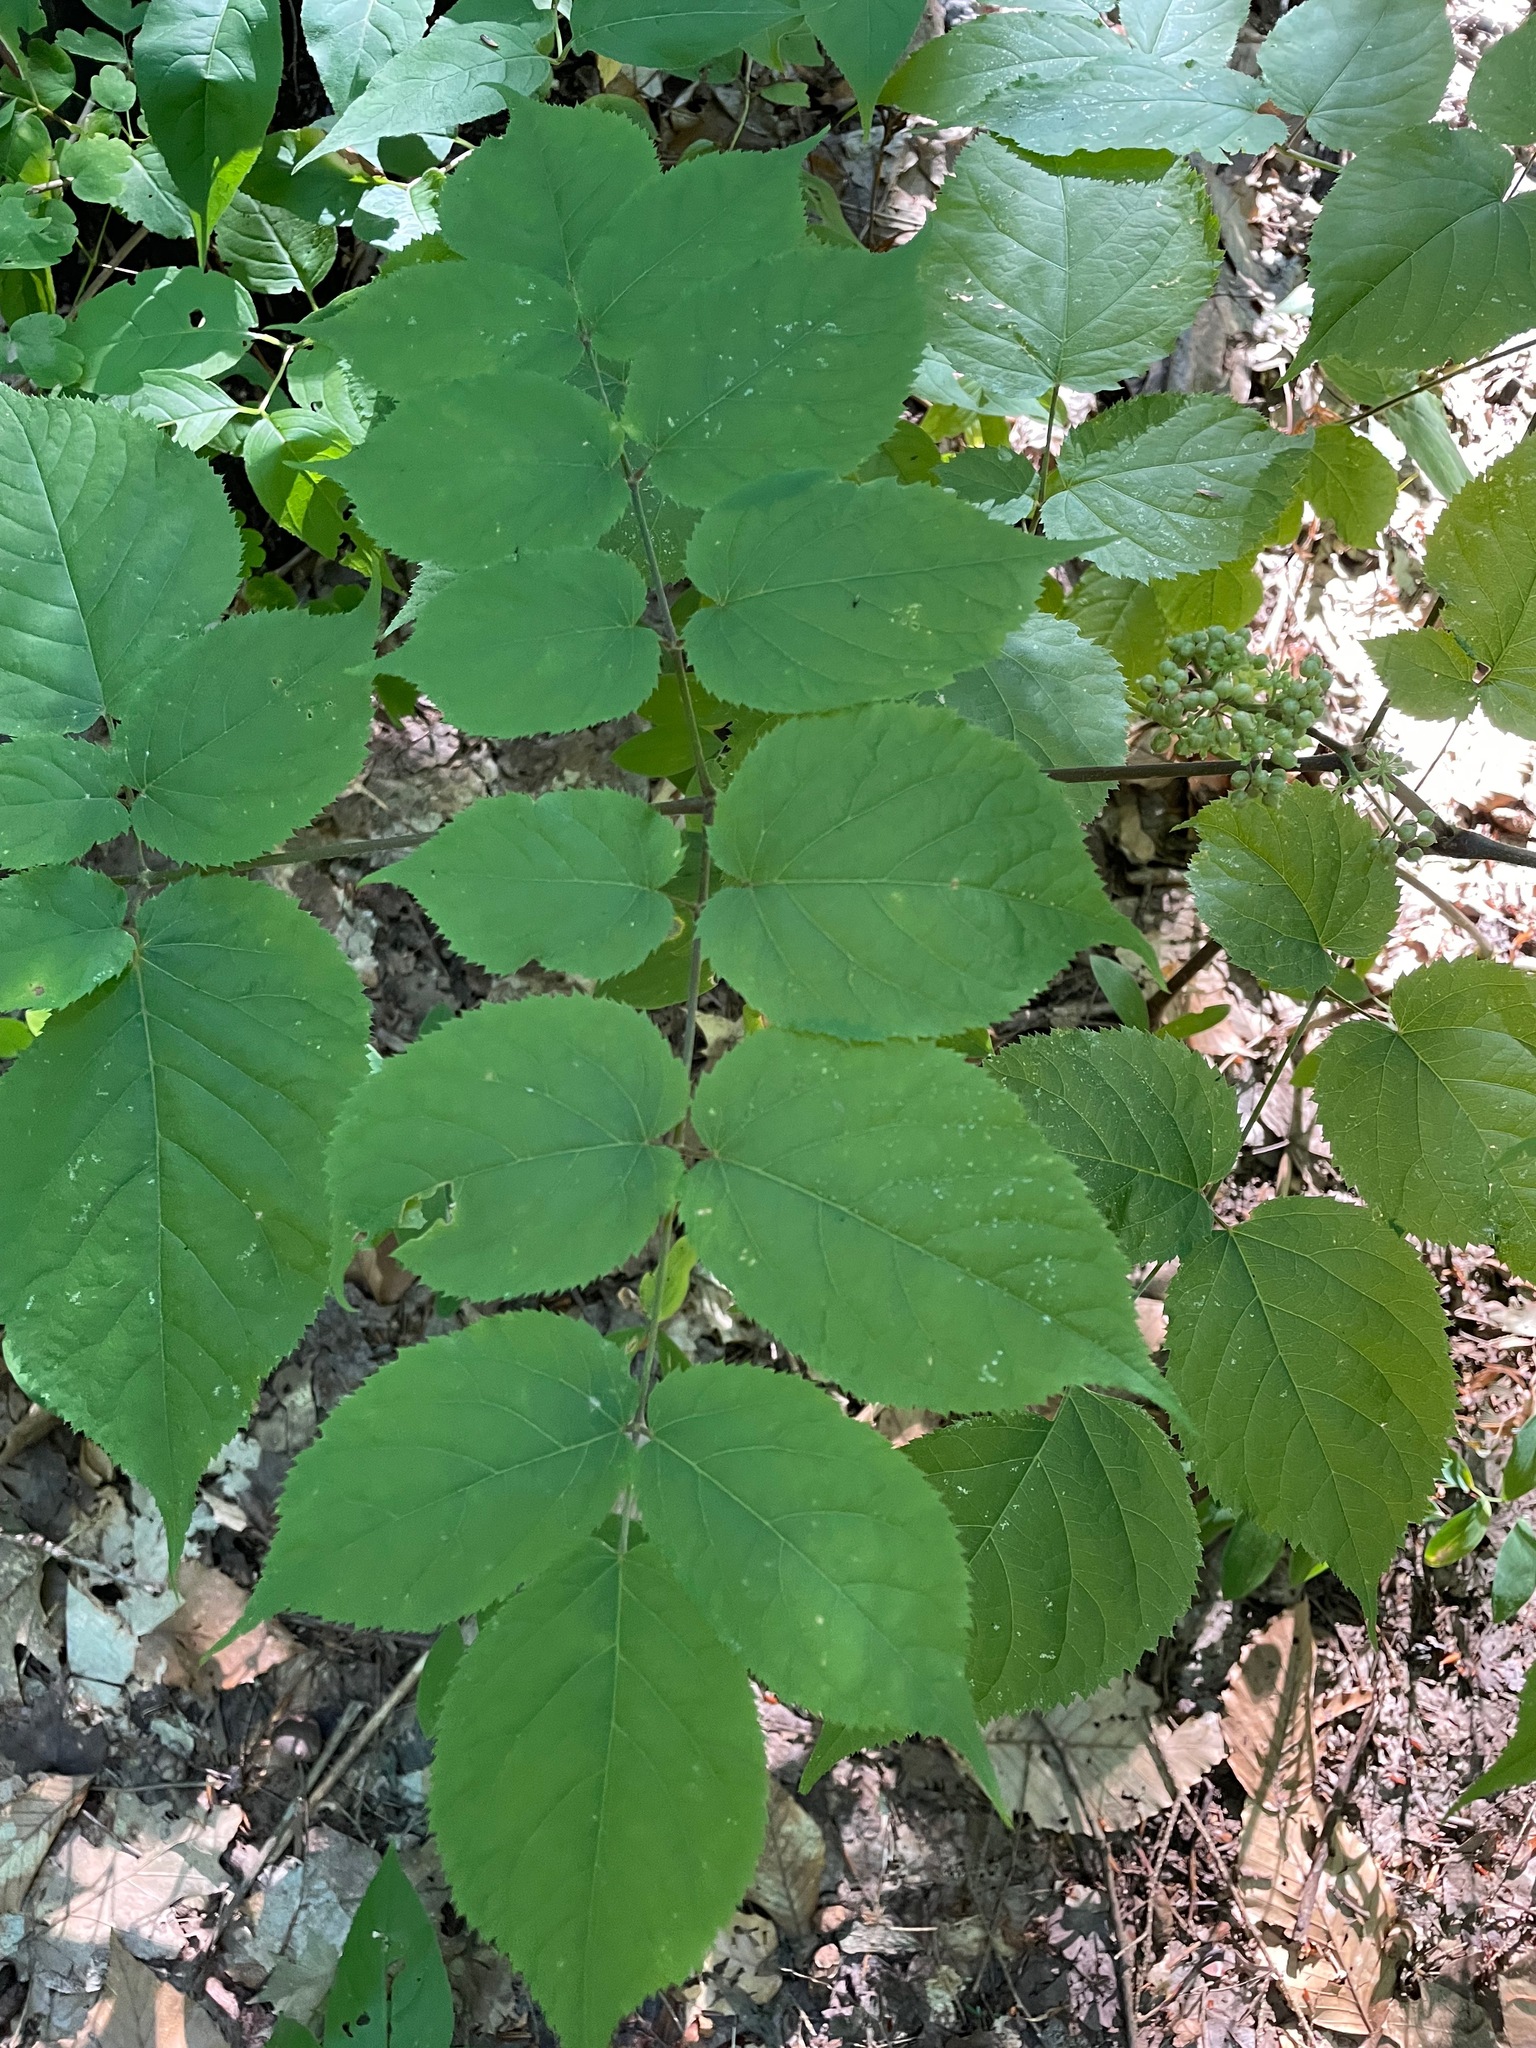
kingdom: Plantae
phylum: Tracheophyta
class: Magnoliopsida
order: Apiales
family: Araliaceae
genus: Aralia
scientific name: Aralia racemosa
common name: American-spikenard
